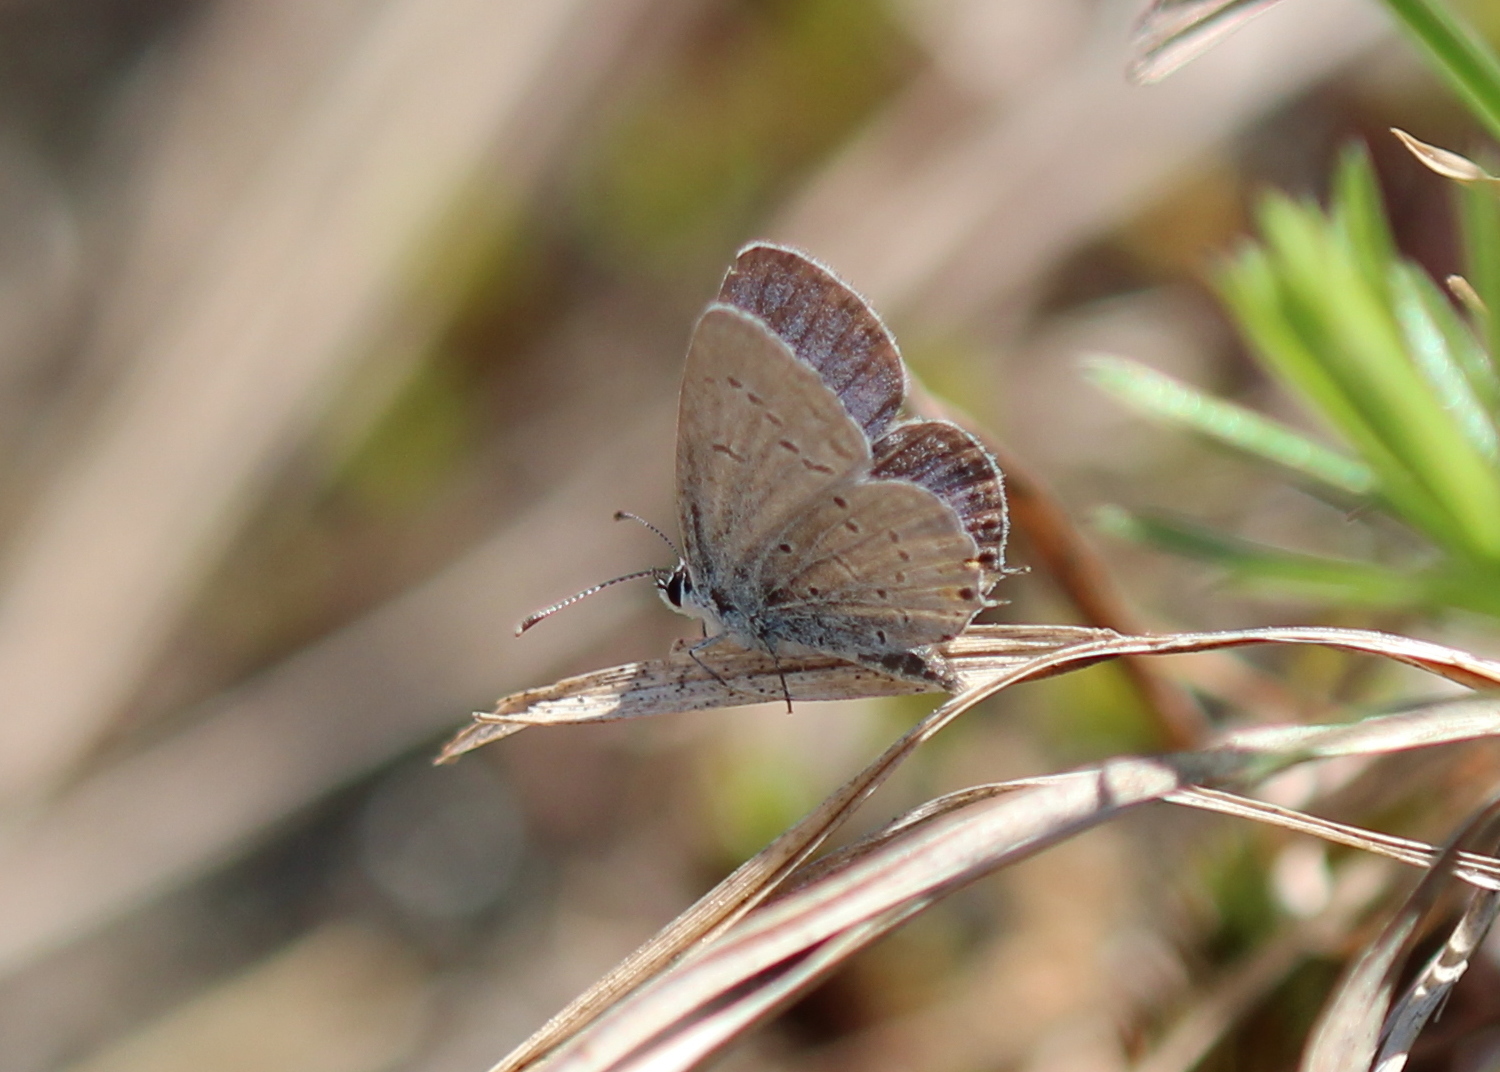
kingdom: Animalia
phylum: Arthropoda
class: Insecta
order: Lepidoptera
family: Lycaenidae
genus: Elkalyce
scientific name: Elkalyce comyntas
